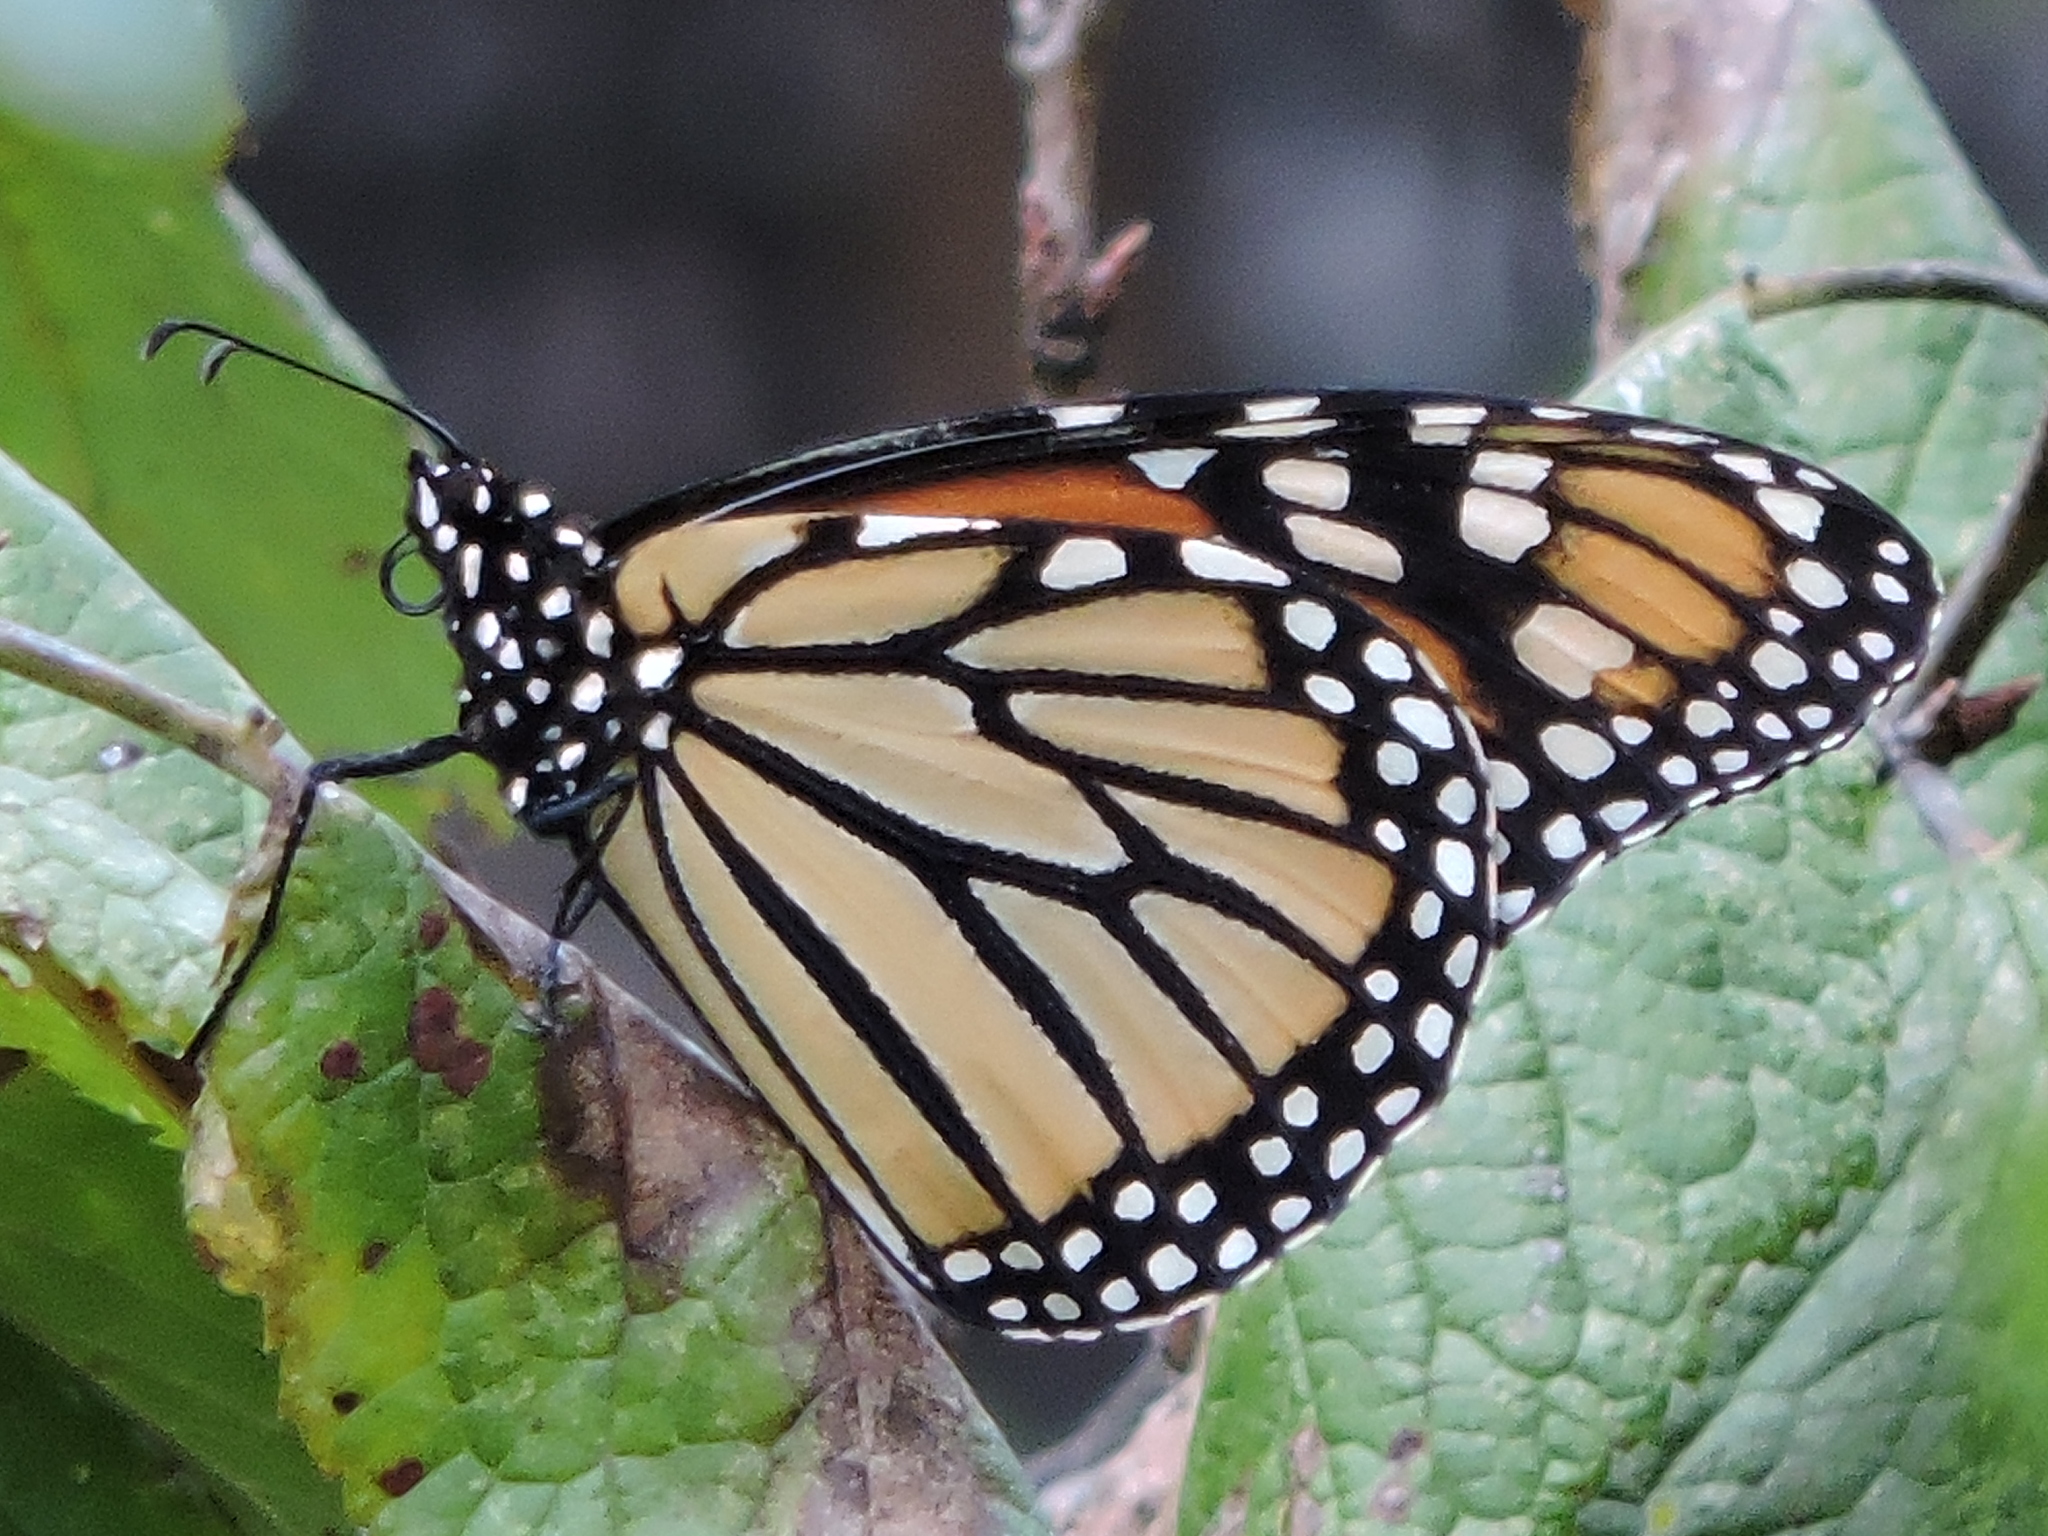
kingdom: Animalia
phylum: Arthropoda
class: Insecta
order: Lepidoptera
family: Nymphalidae
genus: Danaus
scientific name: Danaus plexippus
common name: Monarch
